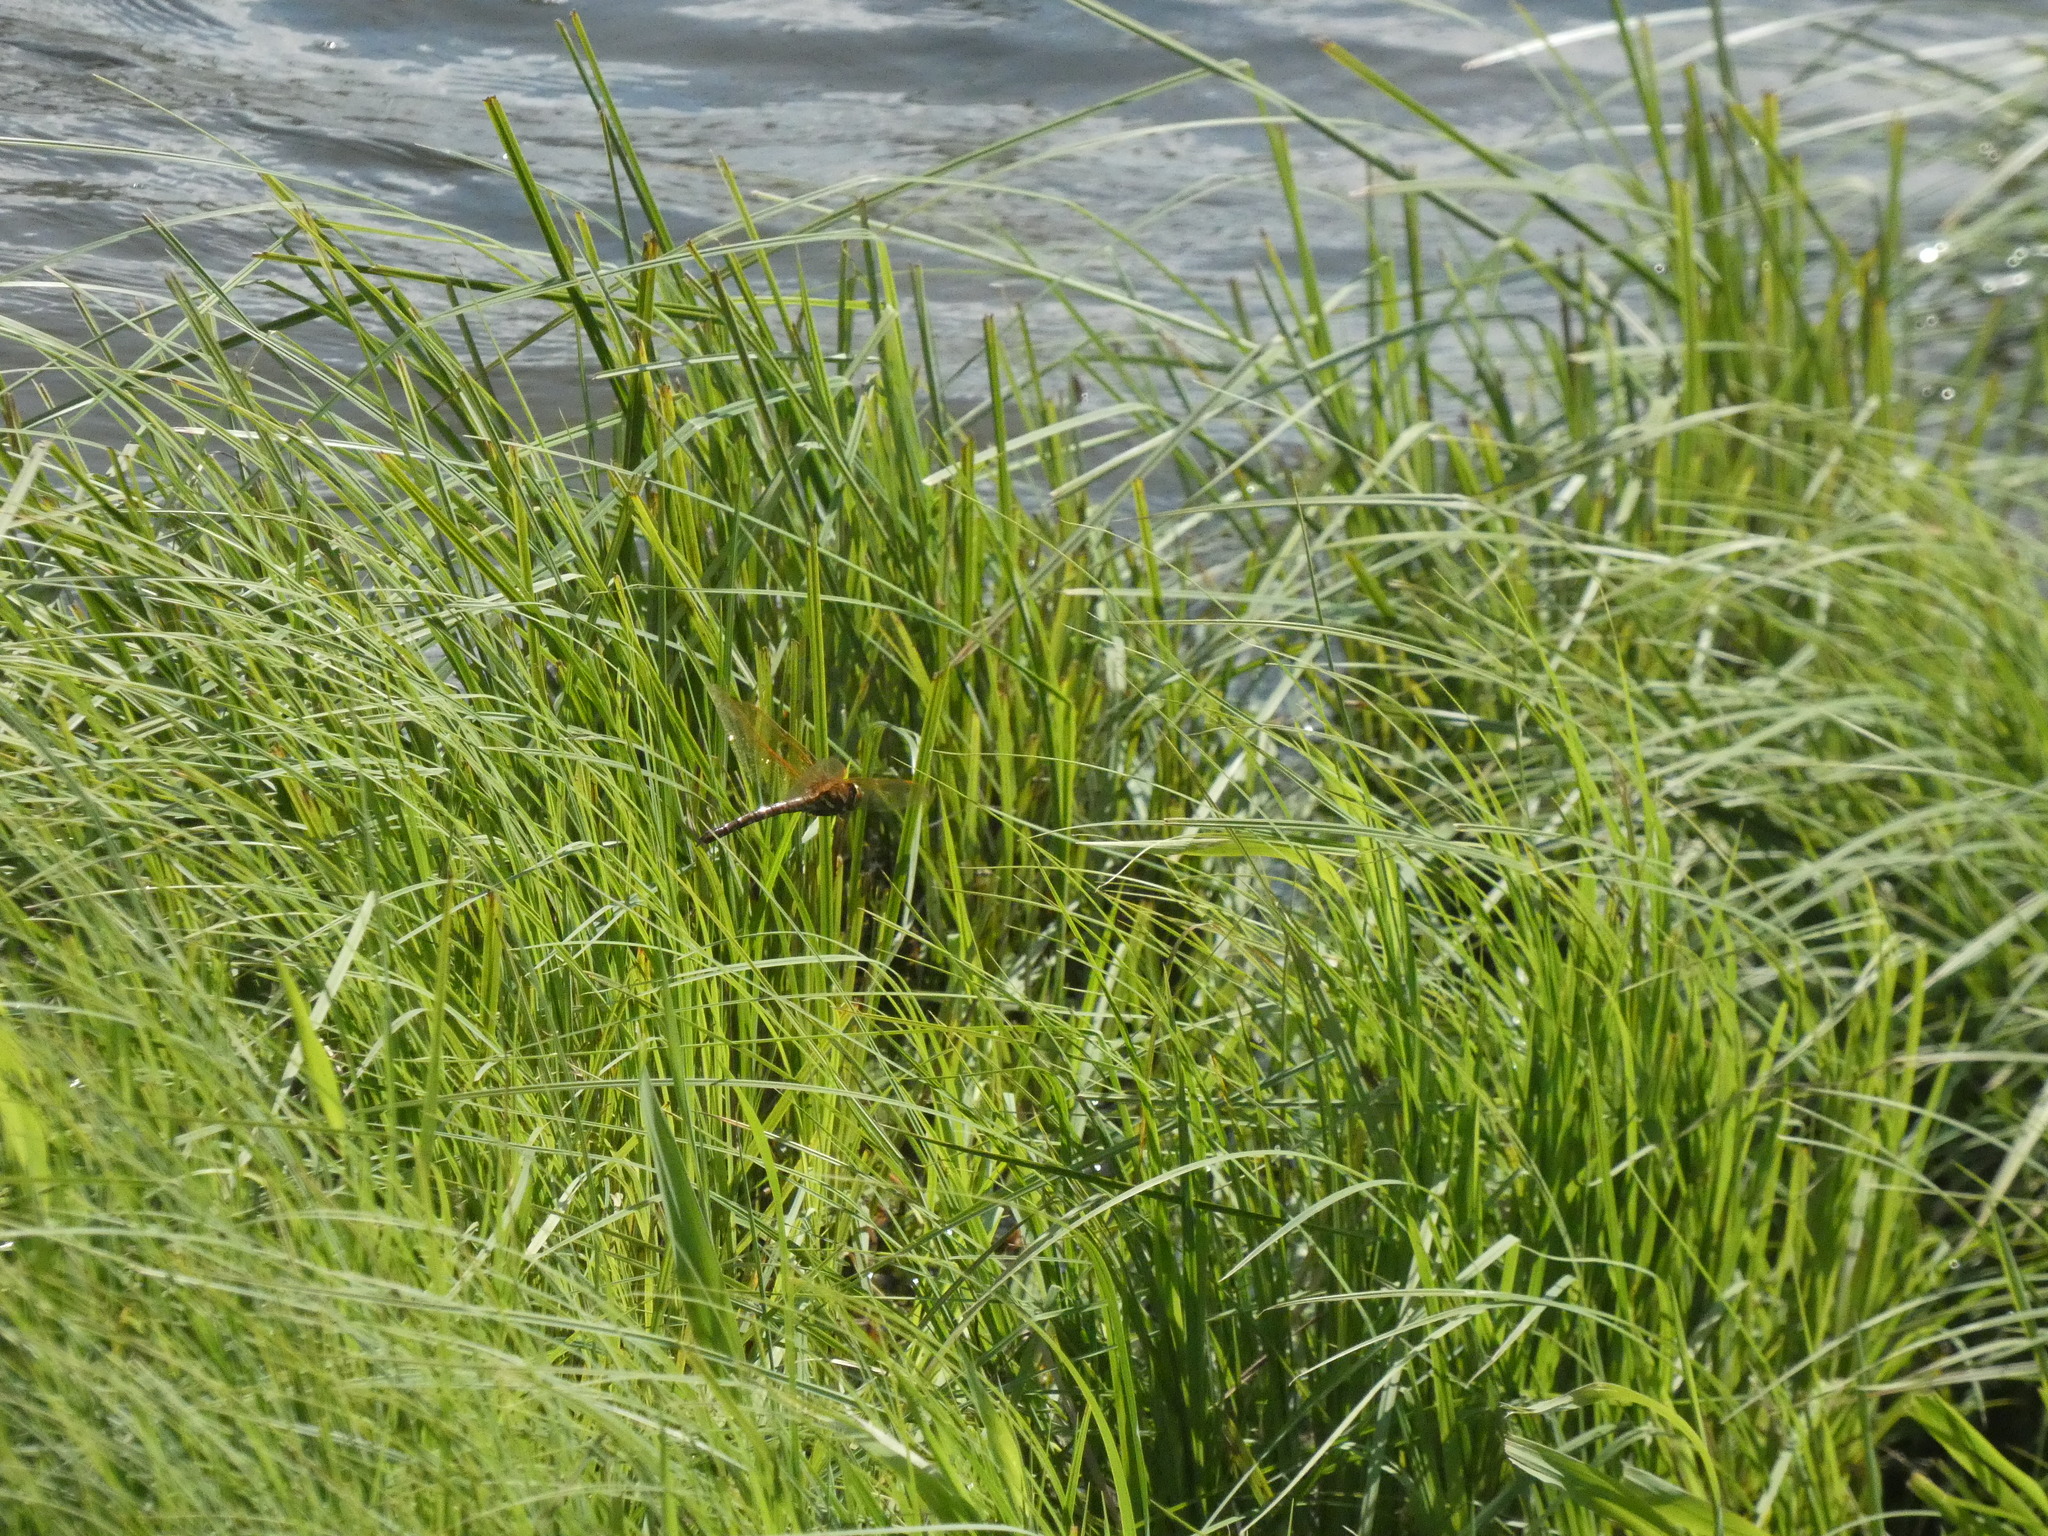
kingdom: Animalia
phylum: Arthropoda
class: Insecta
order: Odonata
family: Aeshnidae
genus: Aeshna
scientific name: Aeshna grandis
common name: Brown hawker
